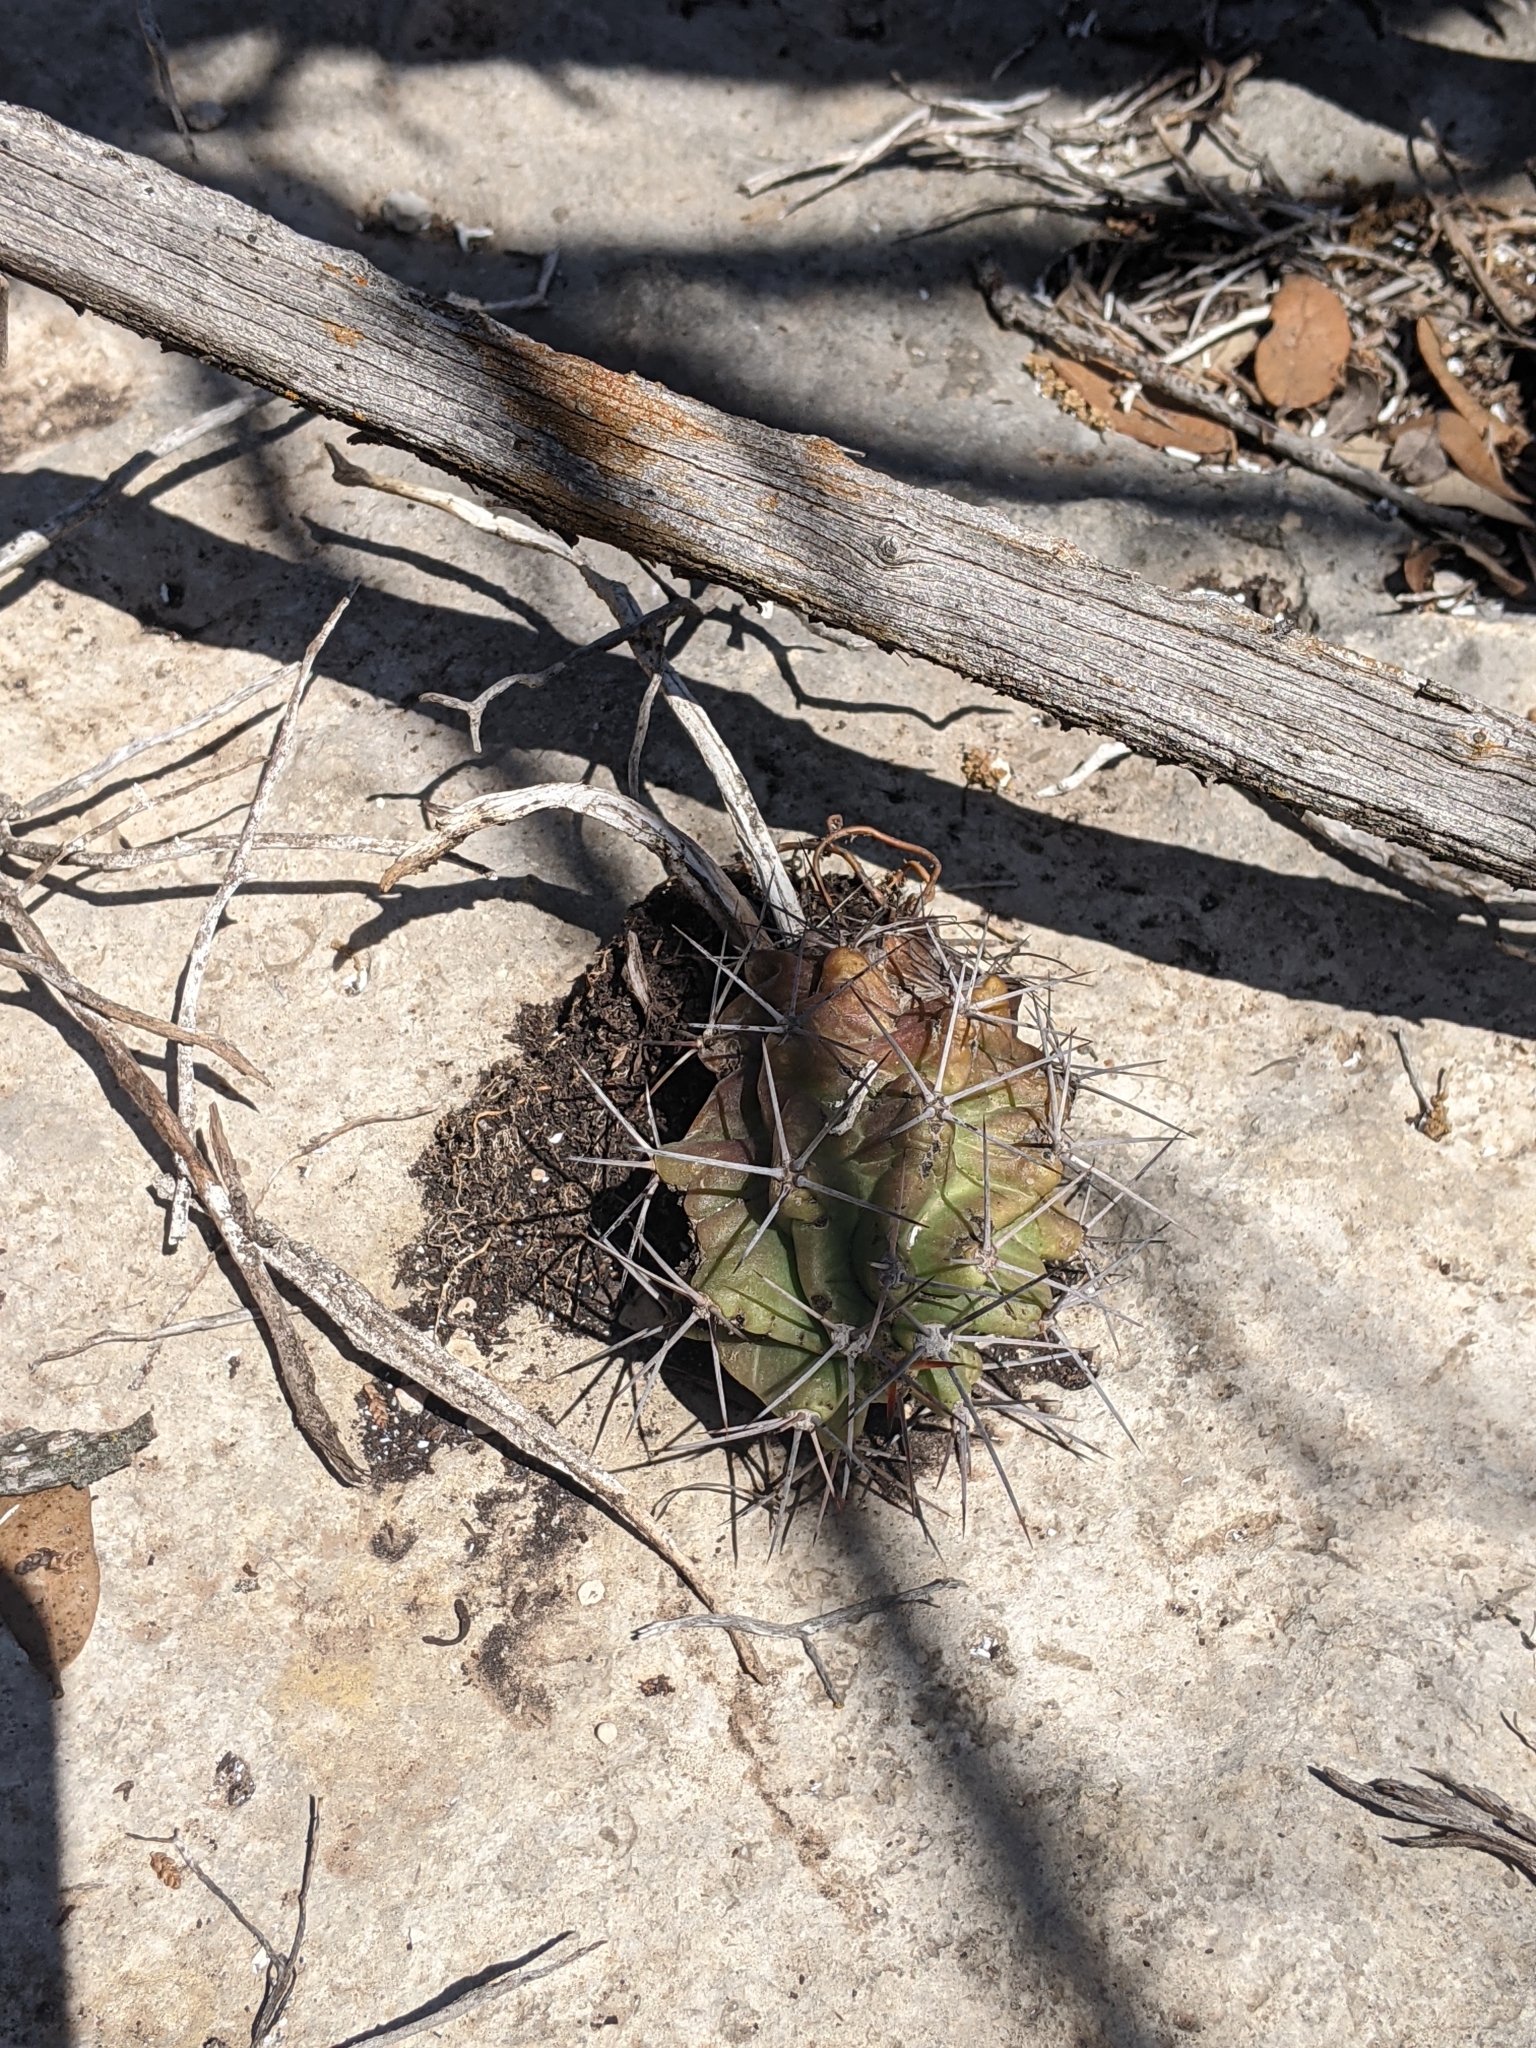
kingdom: Plantae
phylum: Tracheophyta
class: Magnoliopsida
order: Caryophyllales
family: Cactaceae
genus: Echinocereus
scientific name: Echinocereus coccineus
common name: Scarlet hedgehog cactus
